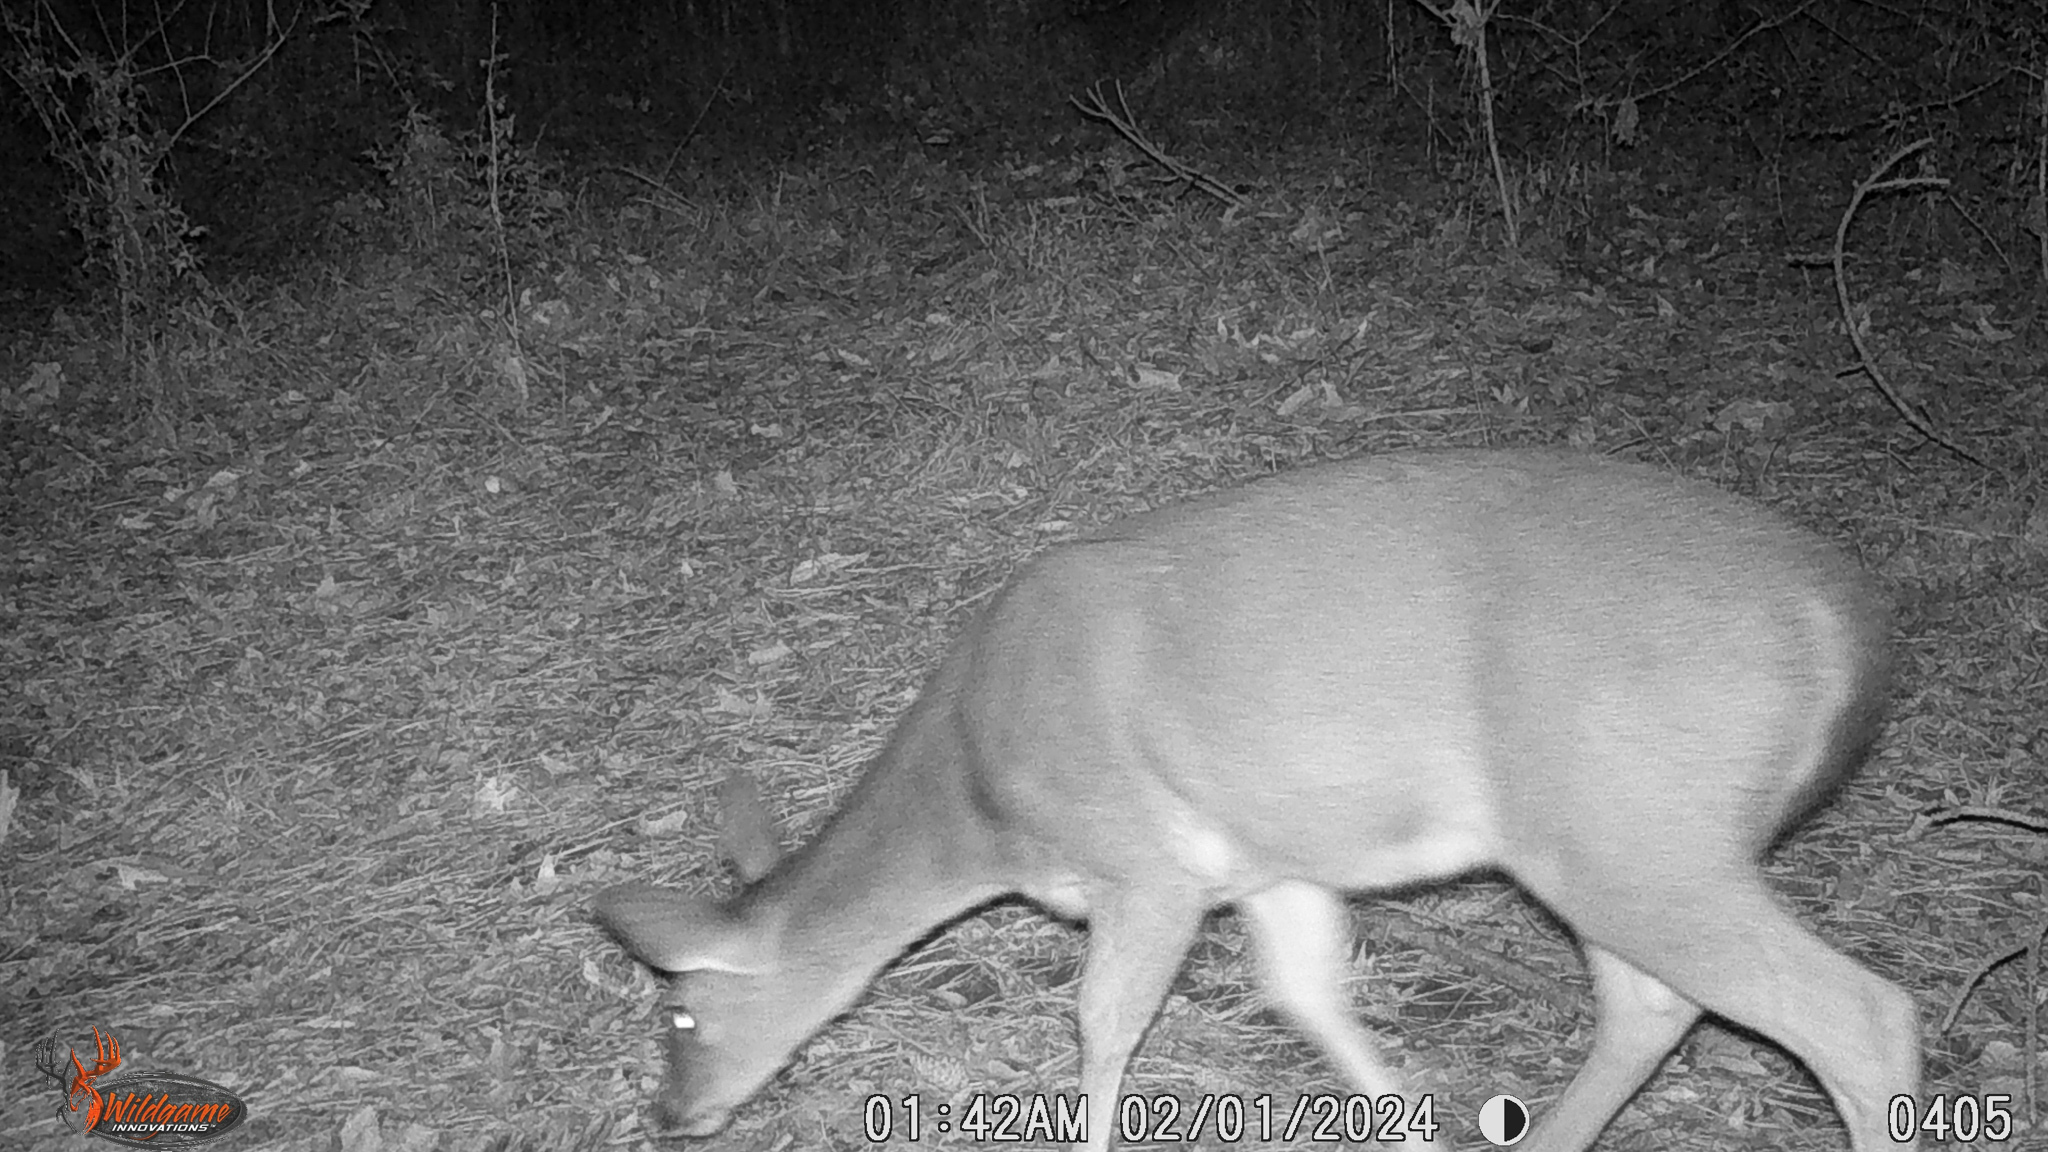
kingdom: Animalia
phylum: Chordata
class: Mammalia
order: Artiodactyla
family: Cervidae
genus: Odocoileus
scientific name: Odocoileus virginianus
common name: White-tailed deer
